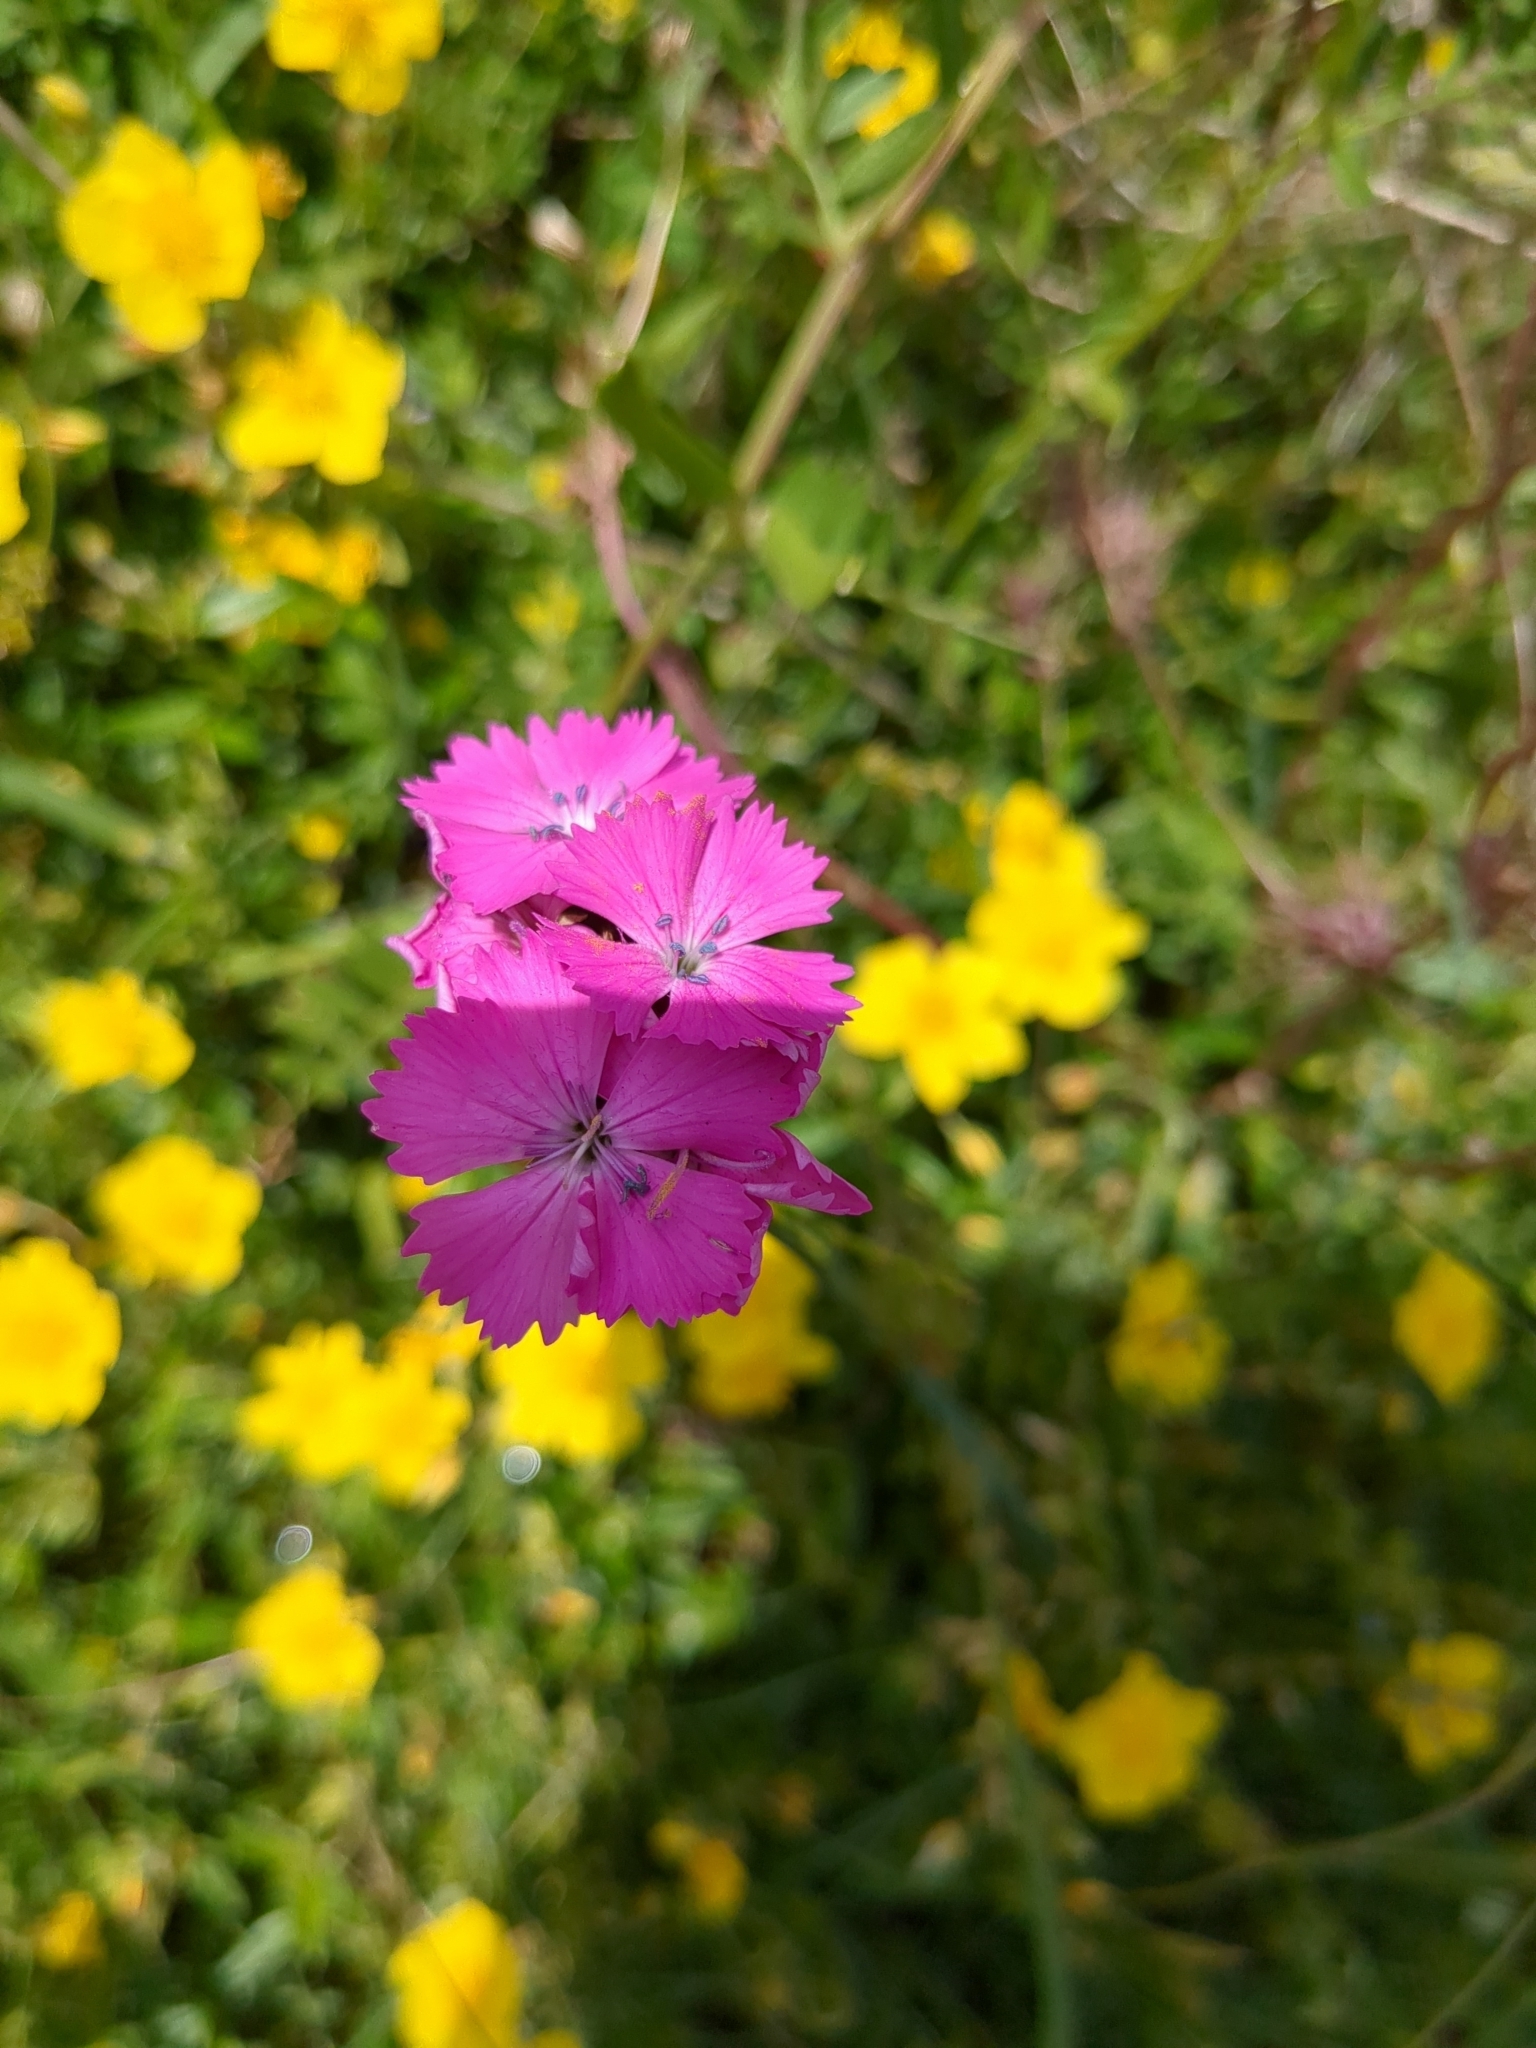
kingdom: Plantae
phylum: Tracheophyta
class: Magnoliopsida
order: Caryophyllales
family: Caryophyllaceae
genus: Dianthus
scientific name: Dianthus carthusianorum
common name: Carthusian pink
